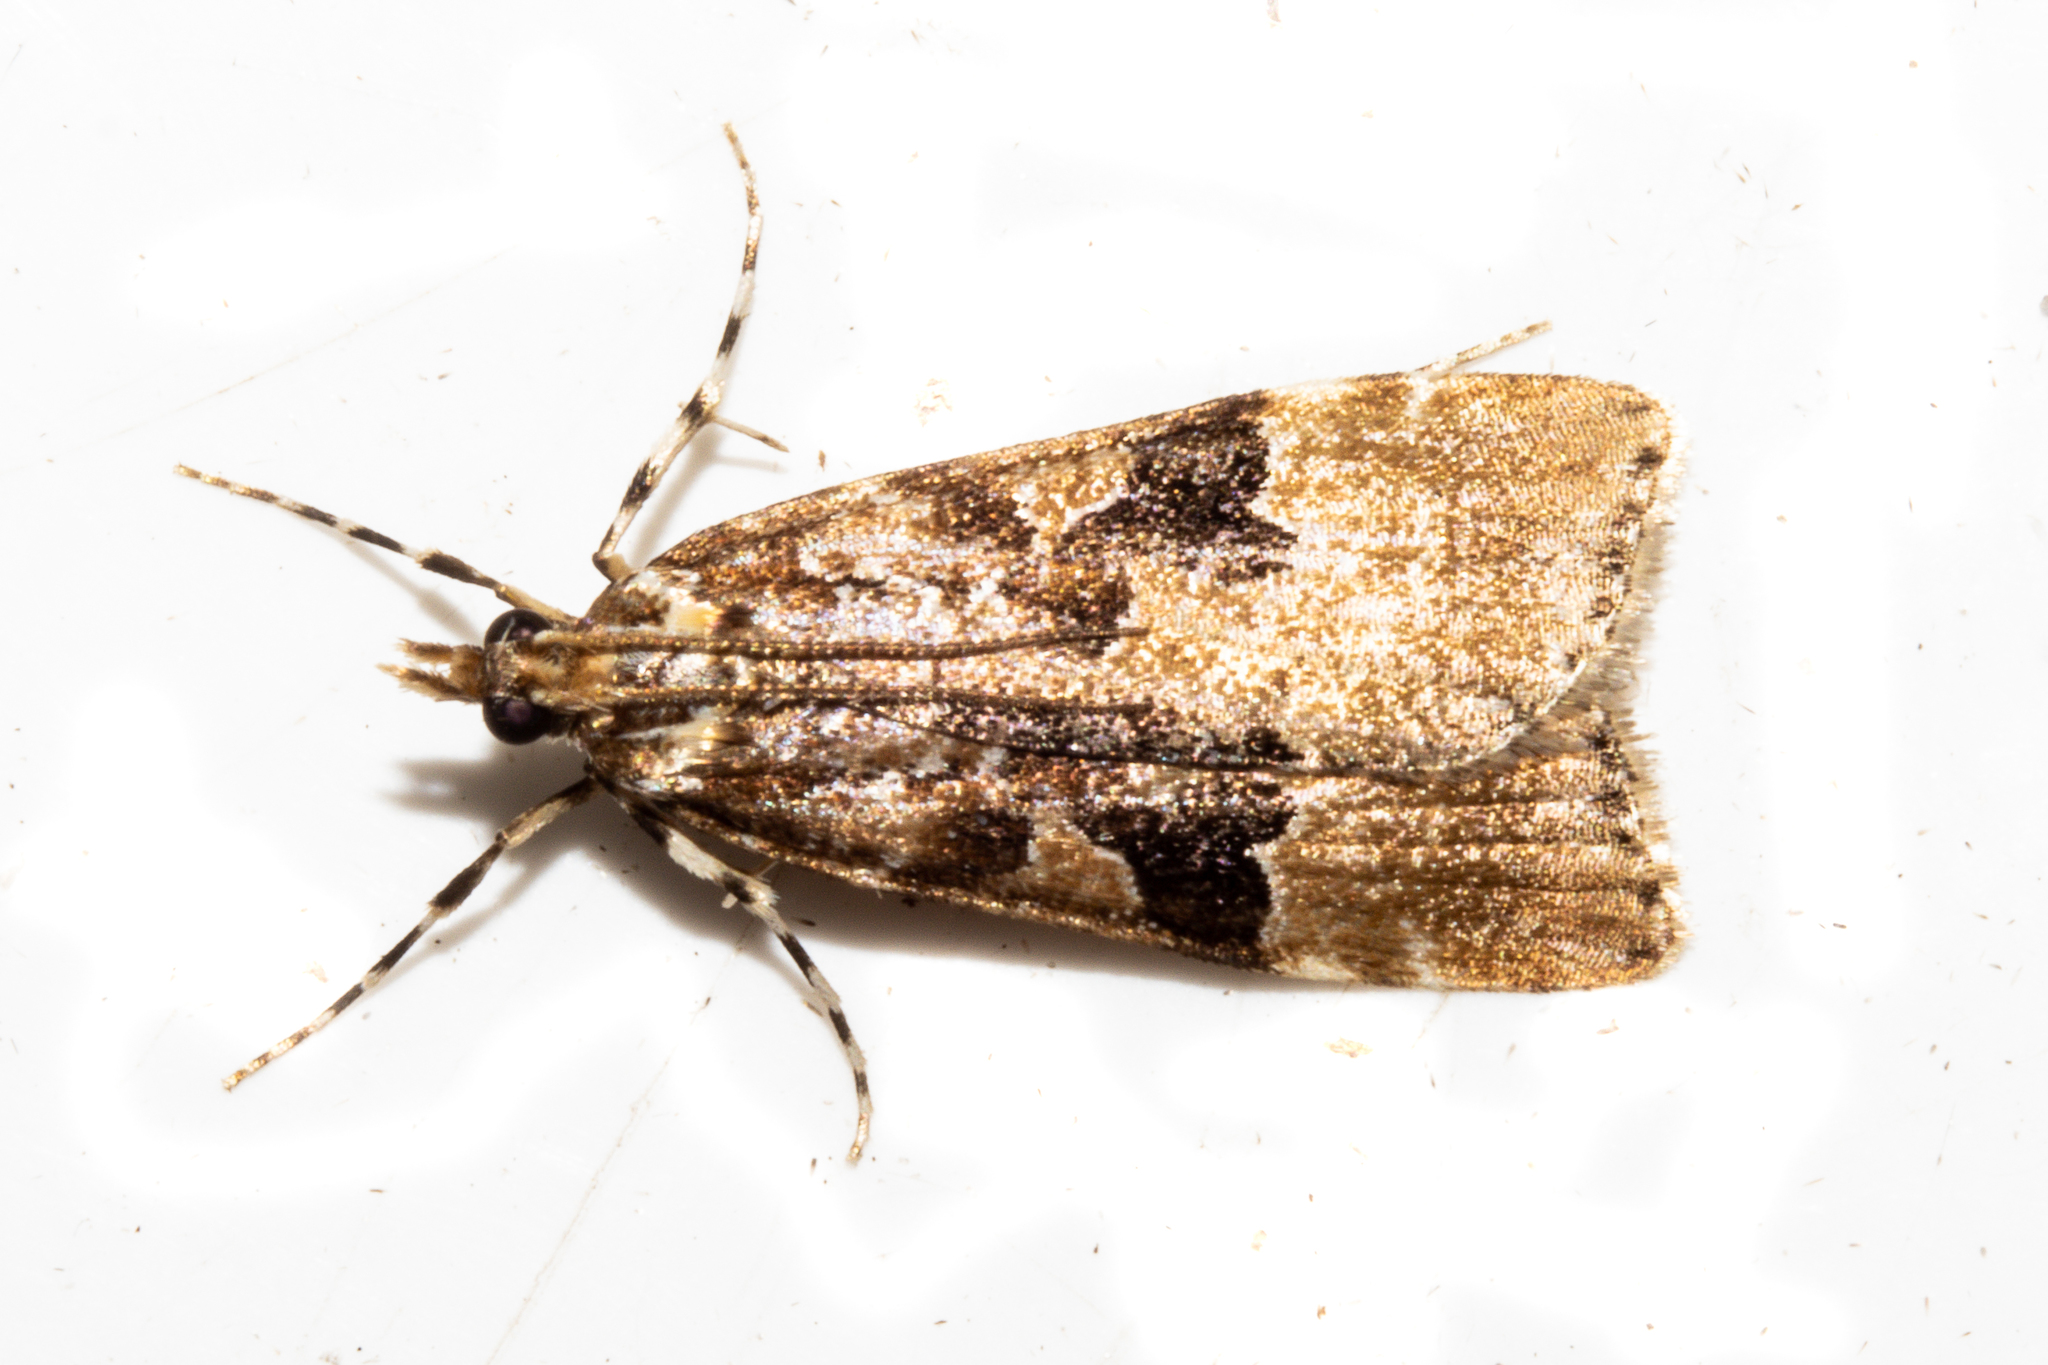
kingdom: Animalia
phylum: Arthropoda
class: Insecta
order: Lepidoptera
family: Crambidae
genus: Scoparia
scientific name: Scoparia ustimacula
